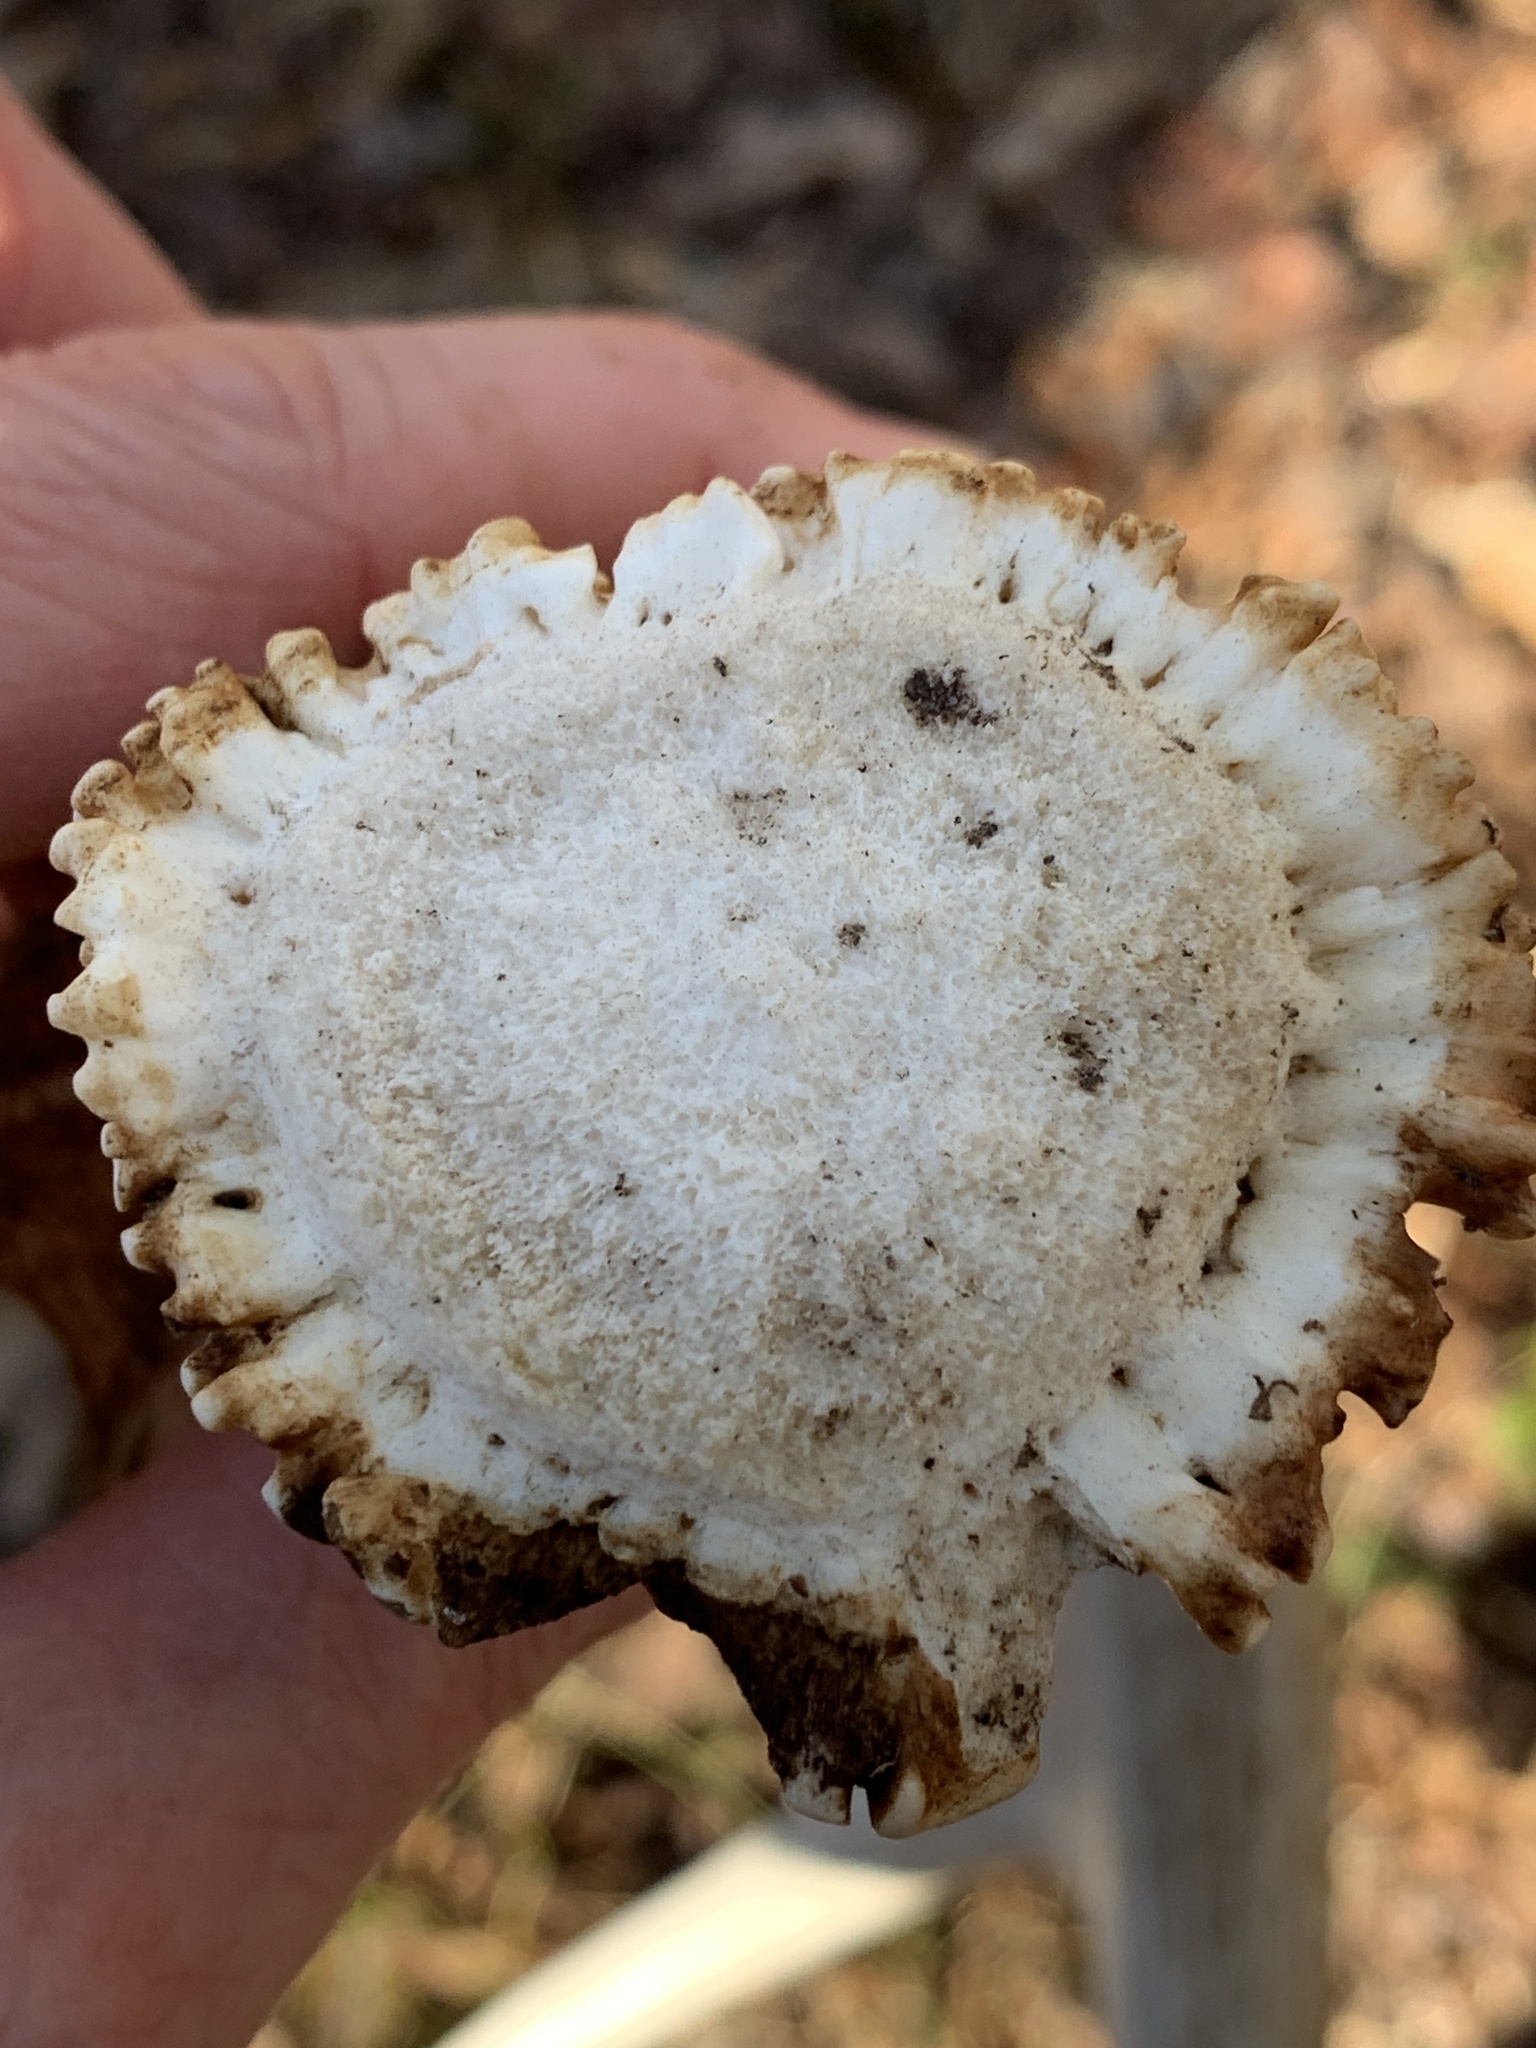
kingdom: Animalia
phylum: Chordata
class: Mammalia
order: Artiodactyla
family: Cervidae
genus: Odocoileus
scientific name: Odocoileus virginianus
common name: White-tailed deer
